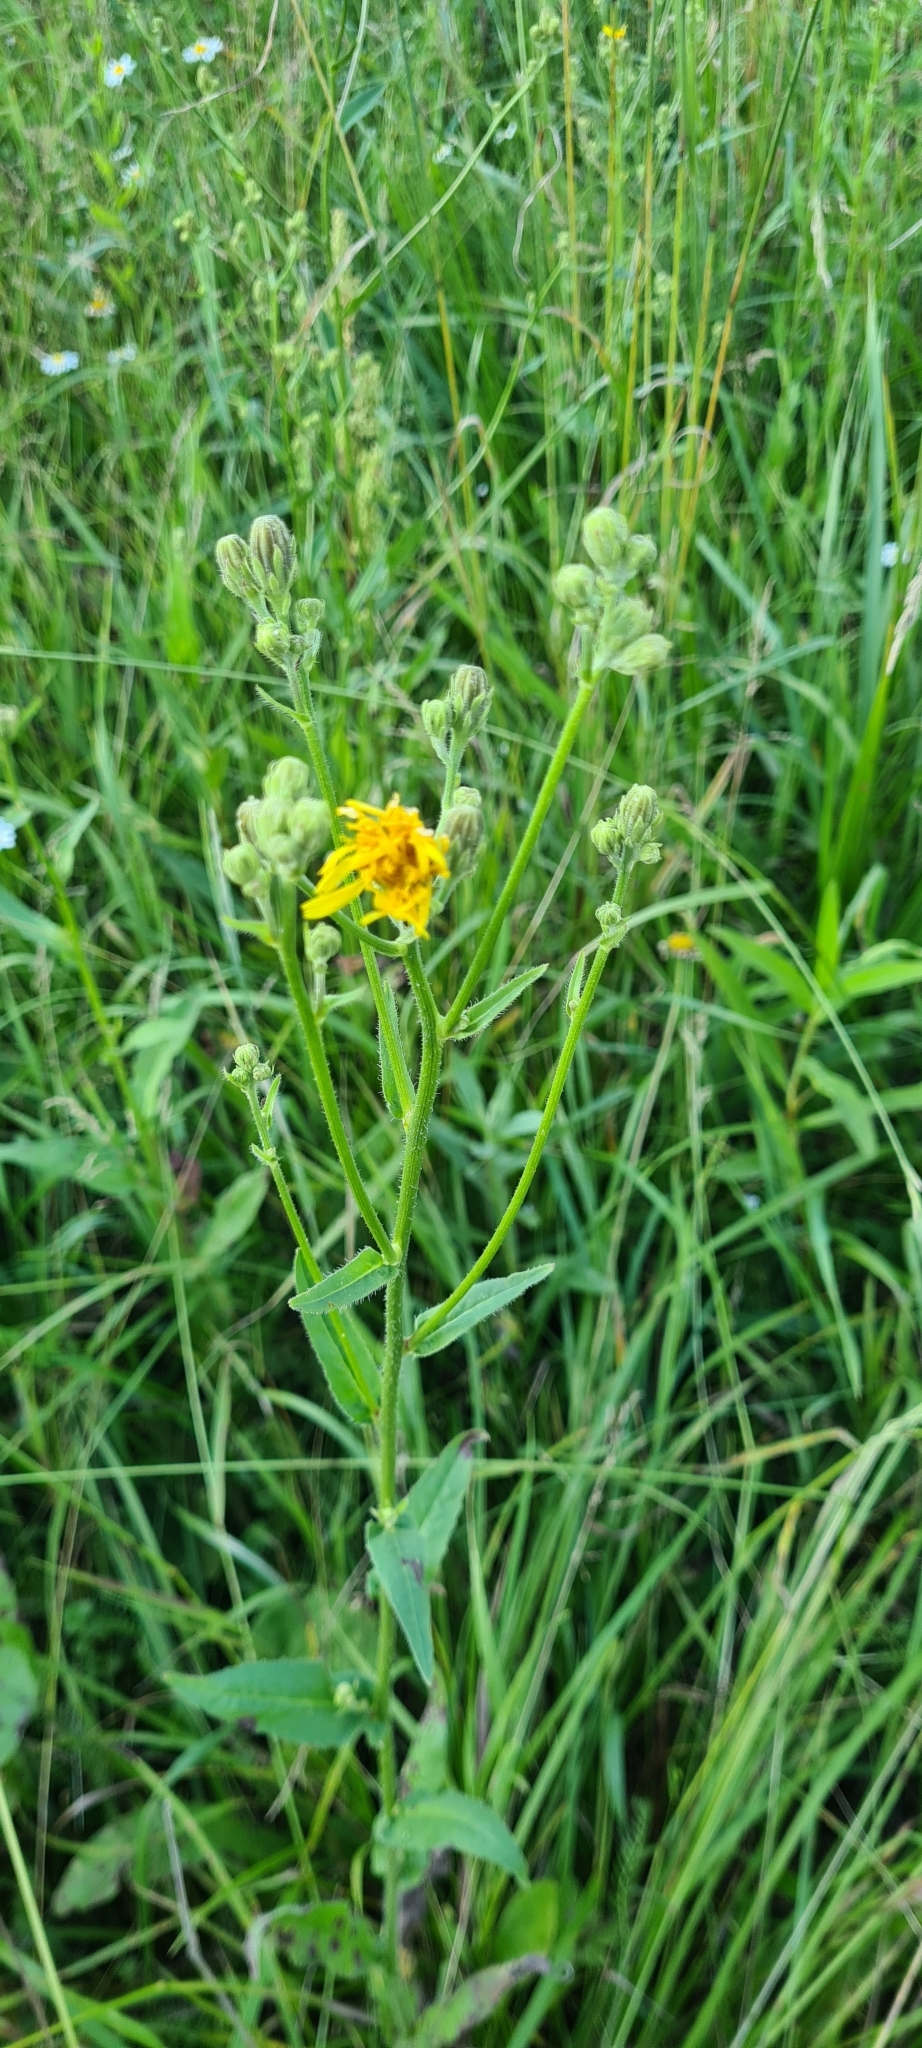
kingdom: Plantae
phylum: Tracheophyta
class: Magnoliopsida
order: Asterales
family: Asteraceae
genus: Picris
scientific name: Picris hieracioides
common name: Hawkweed oxtongue
